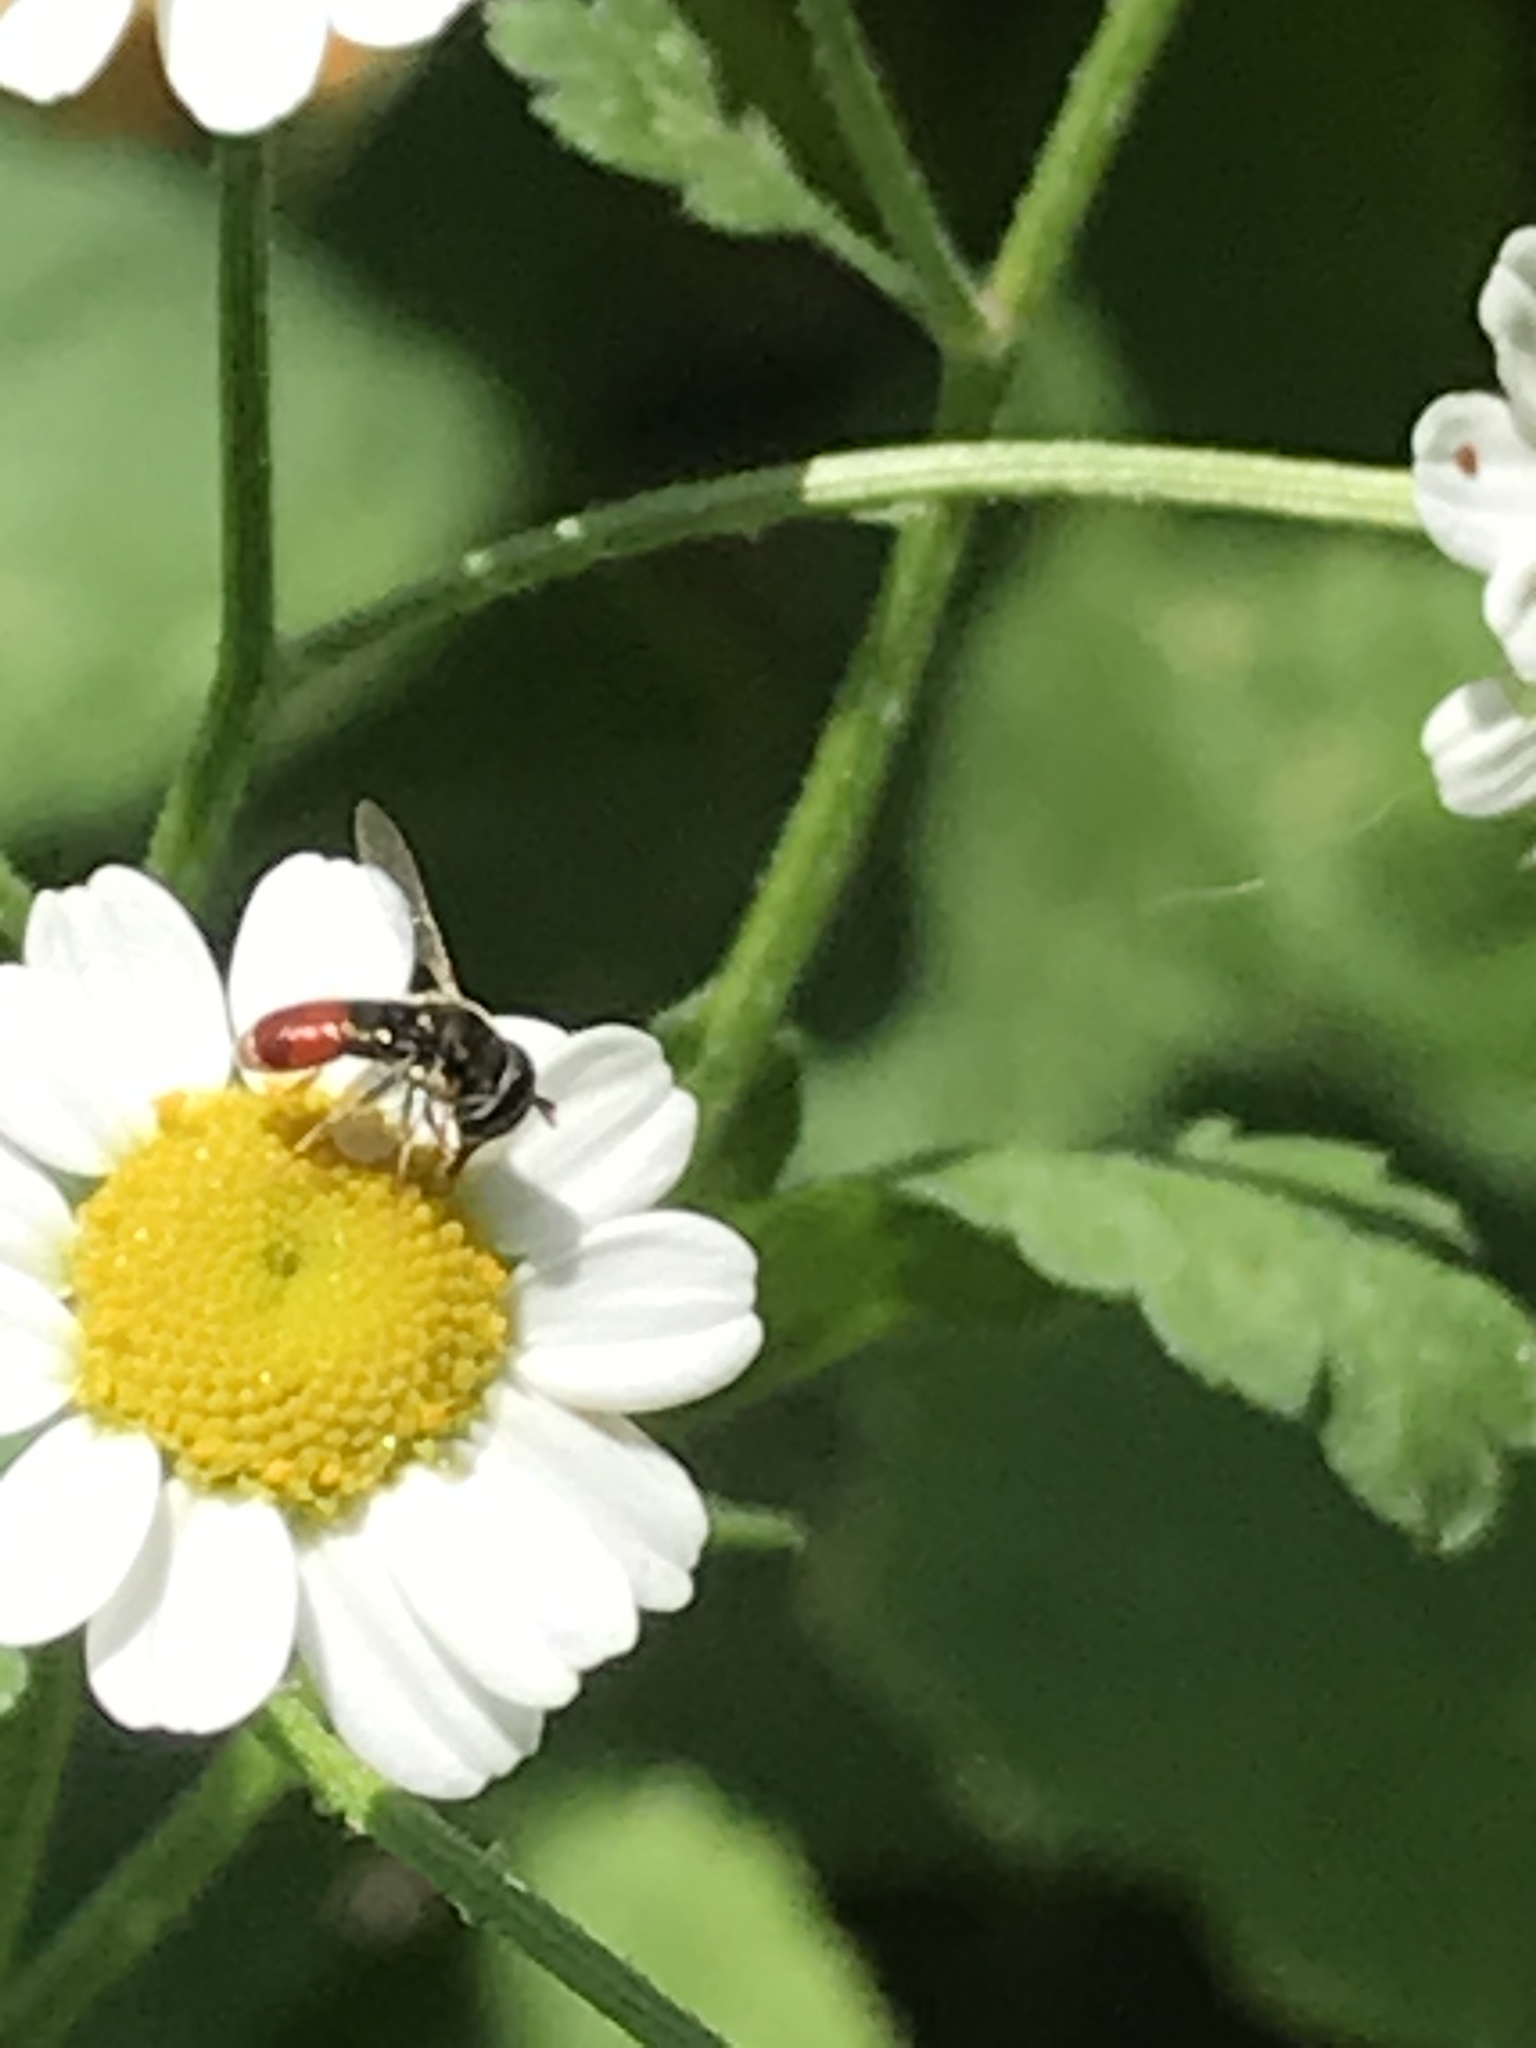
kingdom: Animalia
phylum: Arthropoda
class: Insecta
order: Diptera
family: Syrphidae
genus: Paragus
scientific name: Paragus haemorrhous
